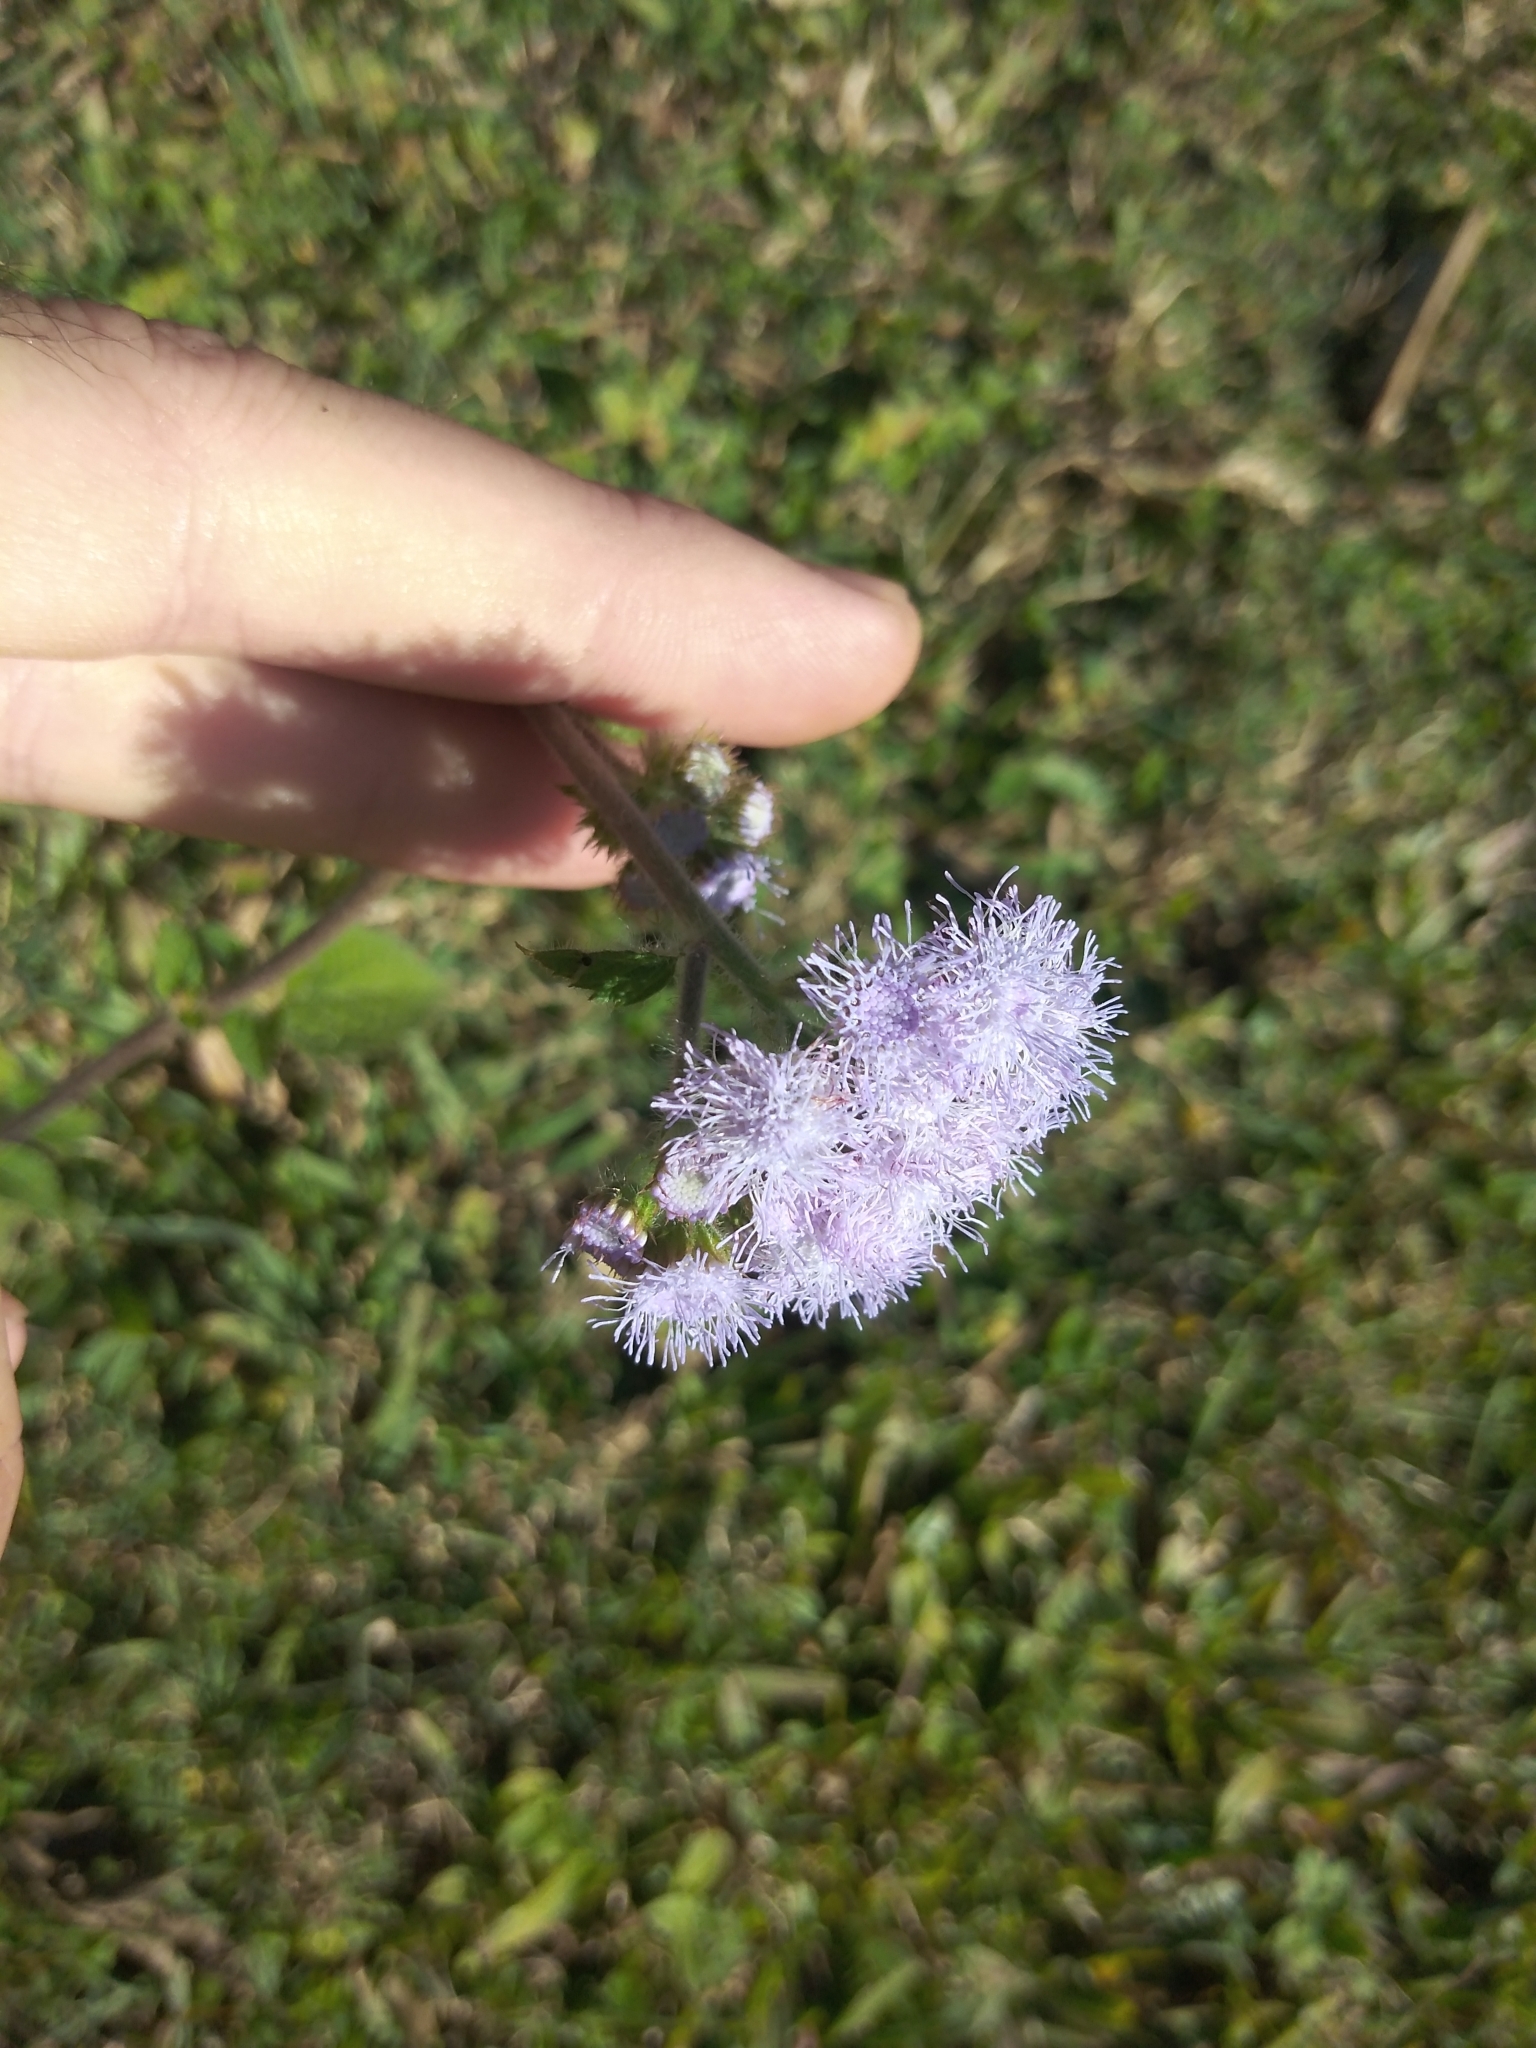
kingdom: Plantae
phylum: Tracheophyta
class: Magnoliopsida
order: Asterales
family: Asteraceae
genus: Ageratum
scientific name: Ageratum houstonianum
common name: Bluemink
